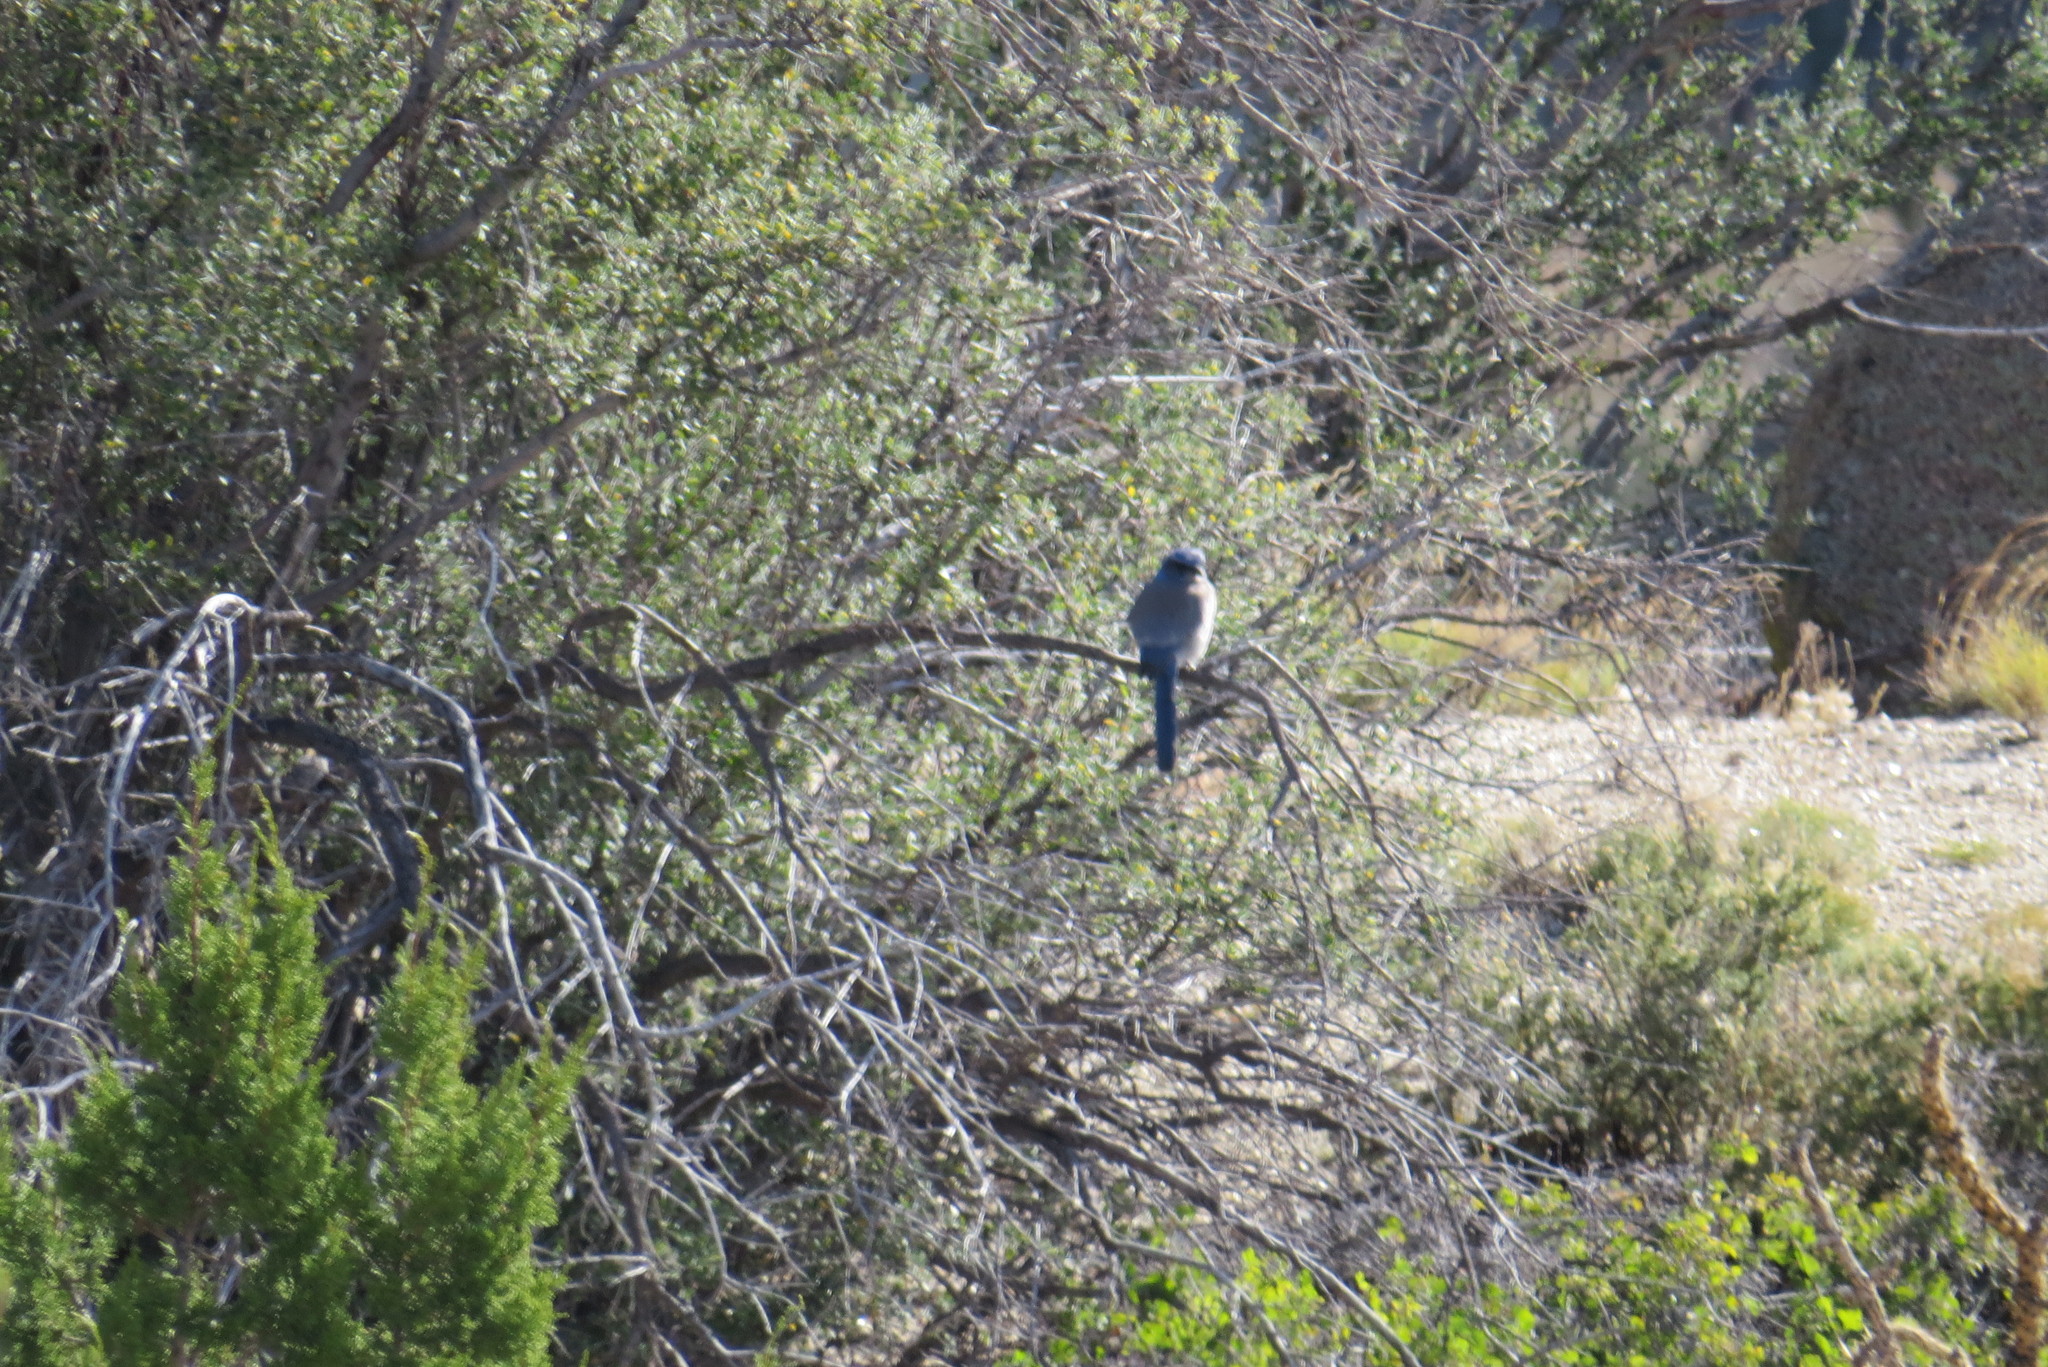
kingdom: Animalia
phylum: Chordata
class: Aves
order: Passeriformes
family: Corvidae
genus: Aphelocoma
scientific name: Aphelocoma woodhouseii
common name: Woodhouse's scrub-jay
